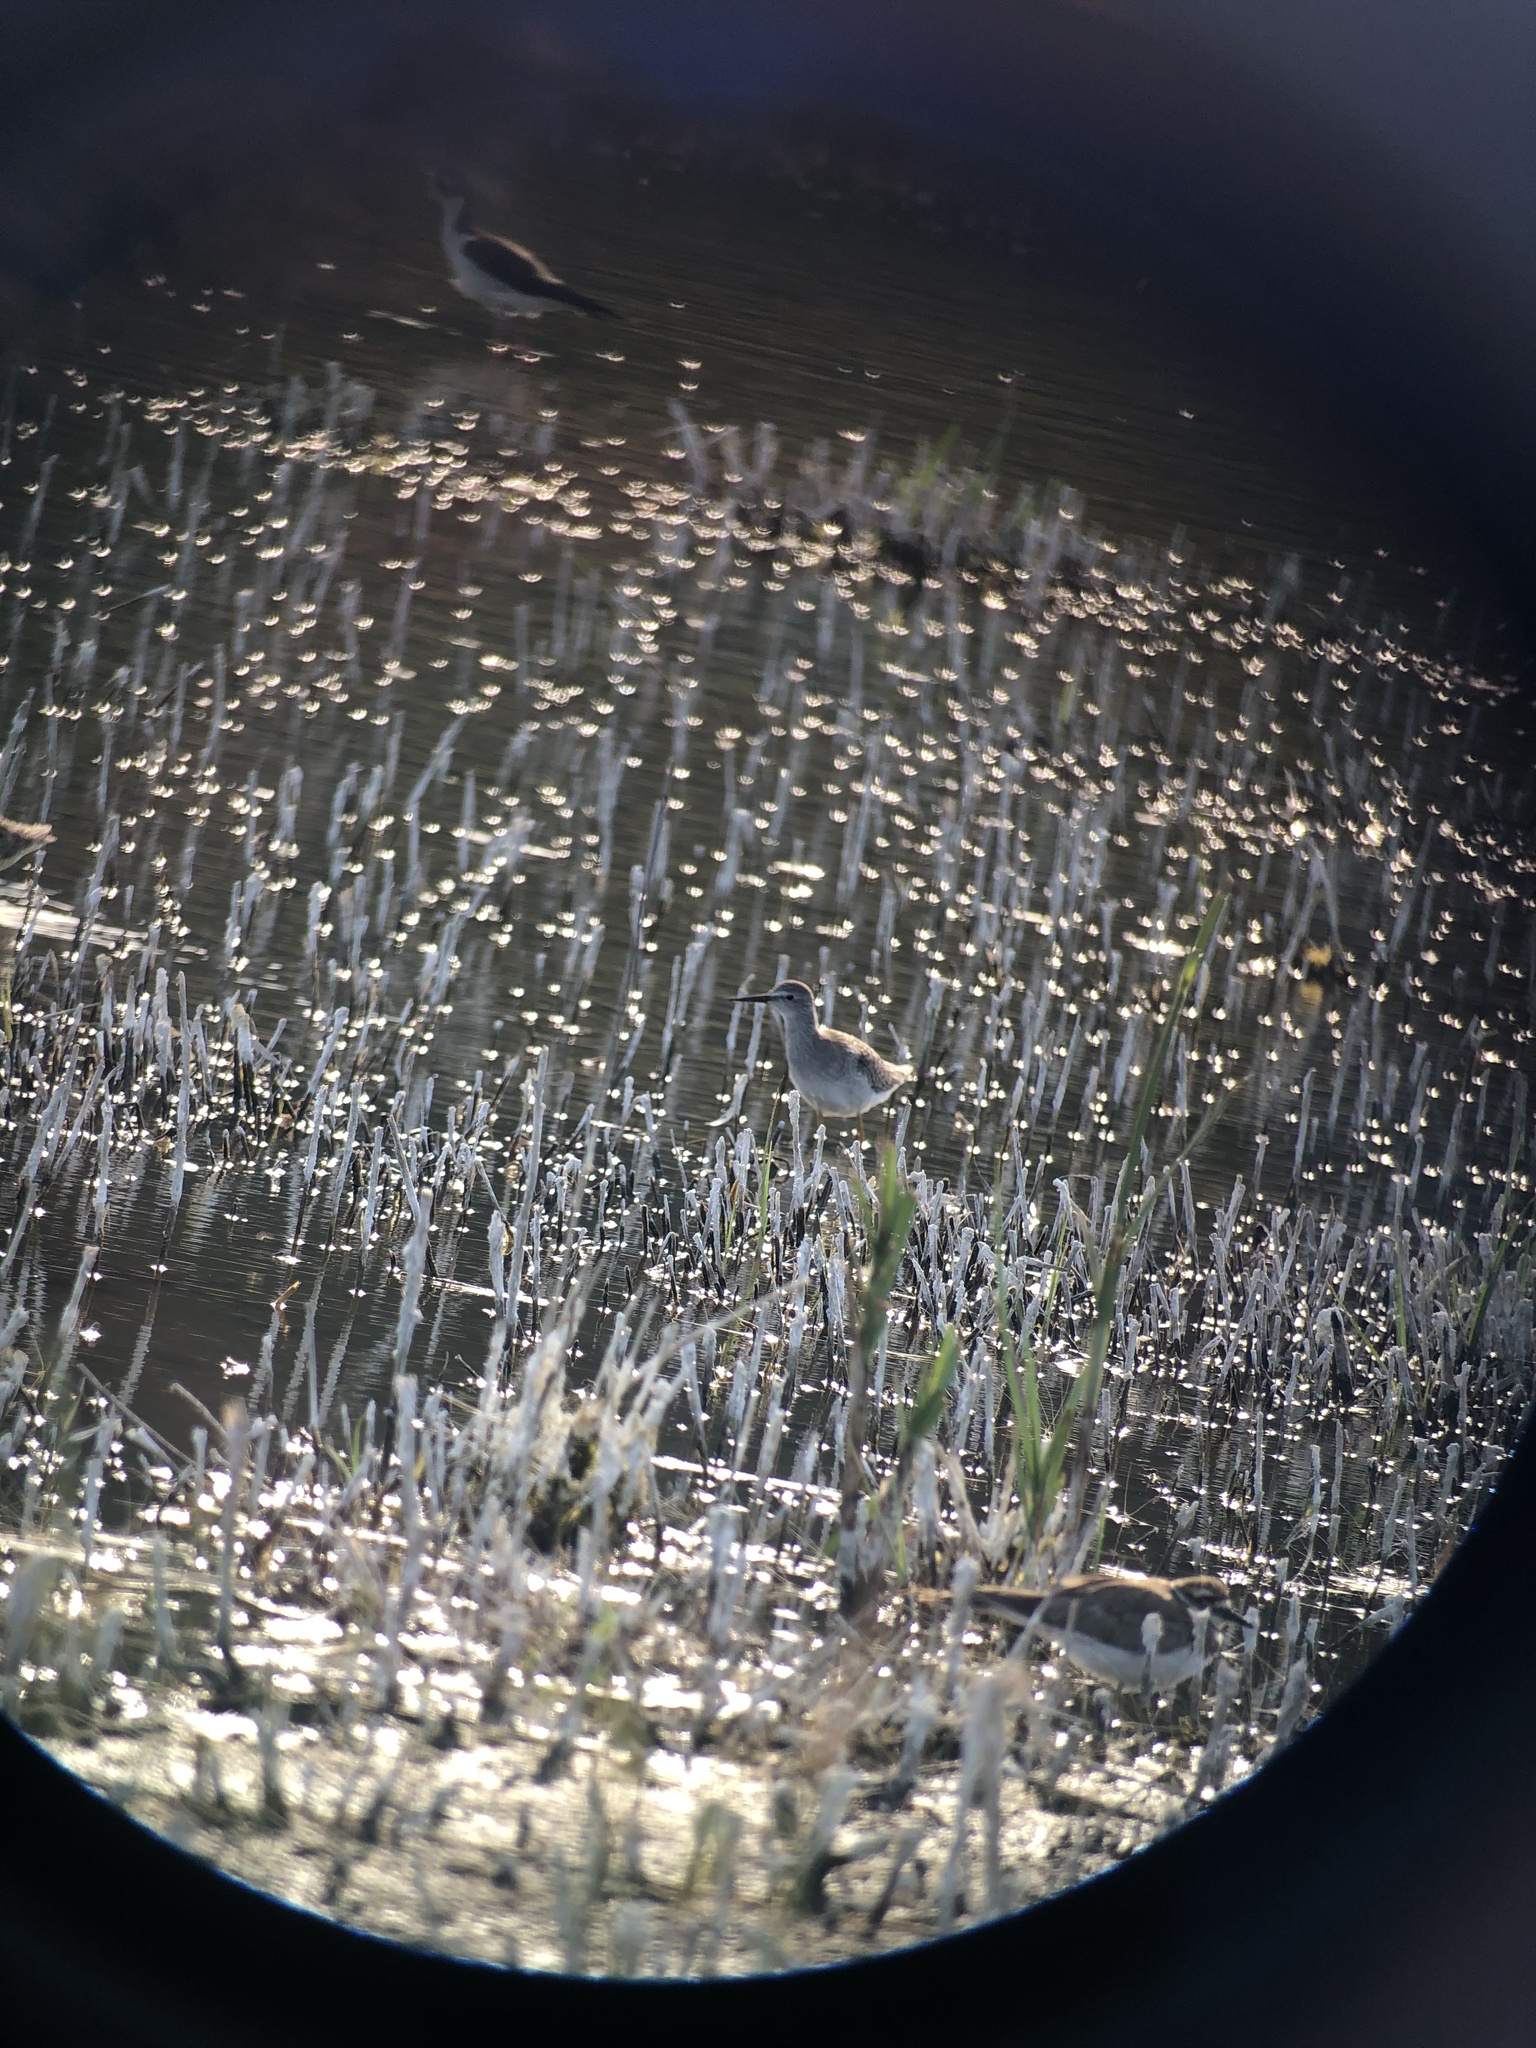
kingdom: Animalia
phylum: Chordata
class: Aves
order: Charadriiformes
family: Scolopacidae
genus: Tringa
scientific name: Tringa flavipes
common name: Lesser yellowlegs
